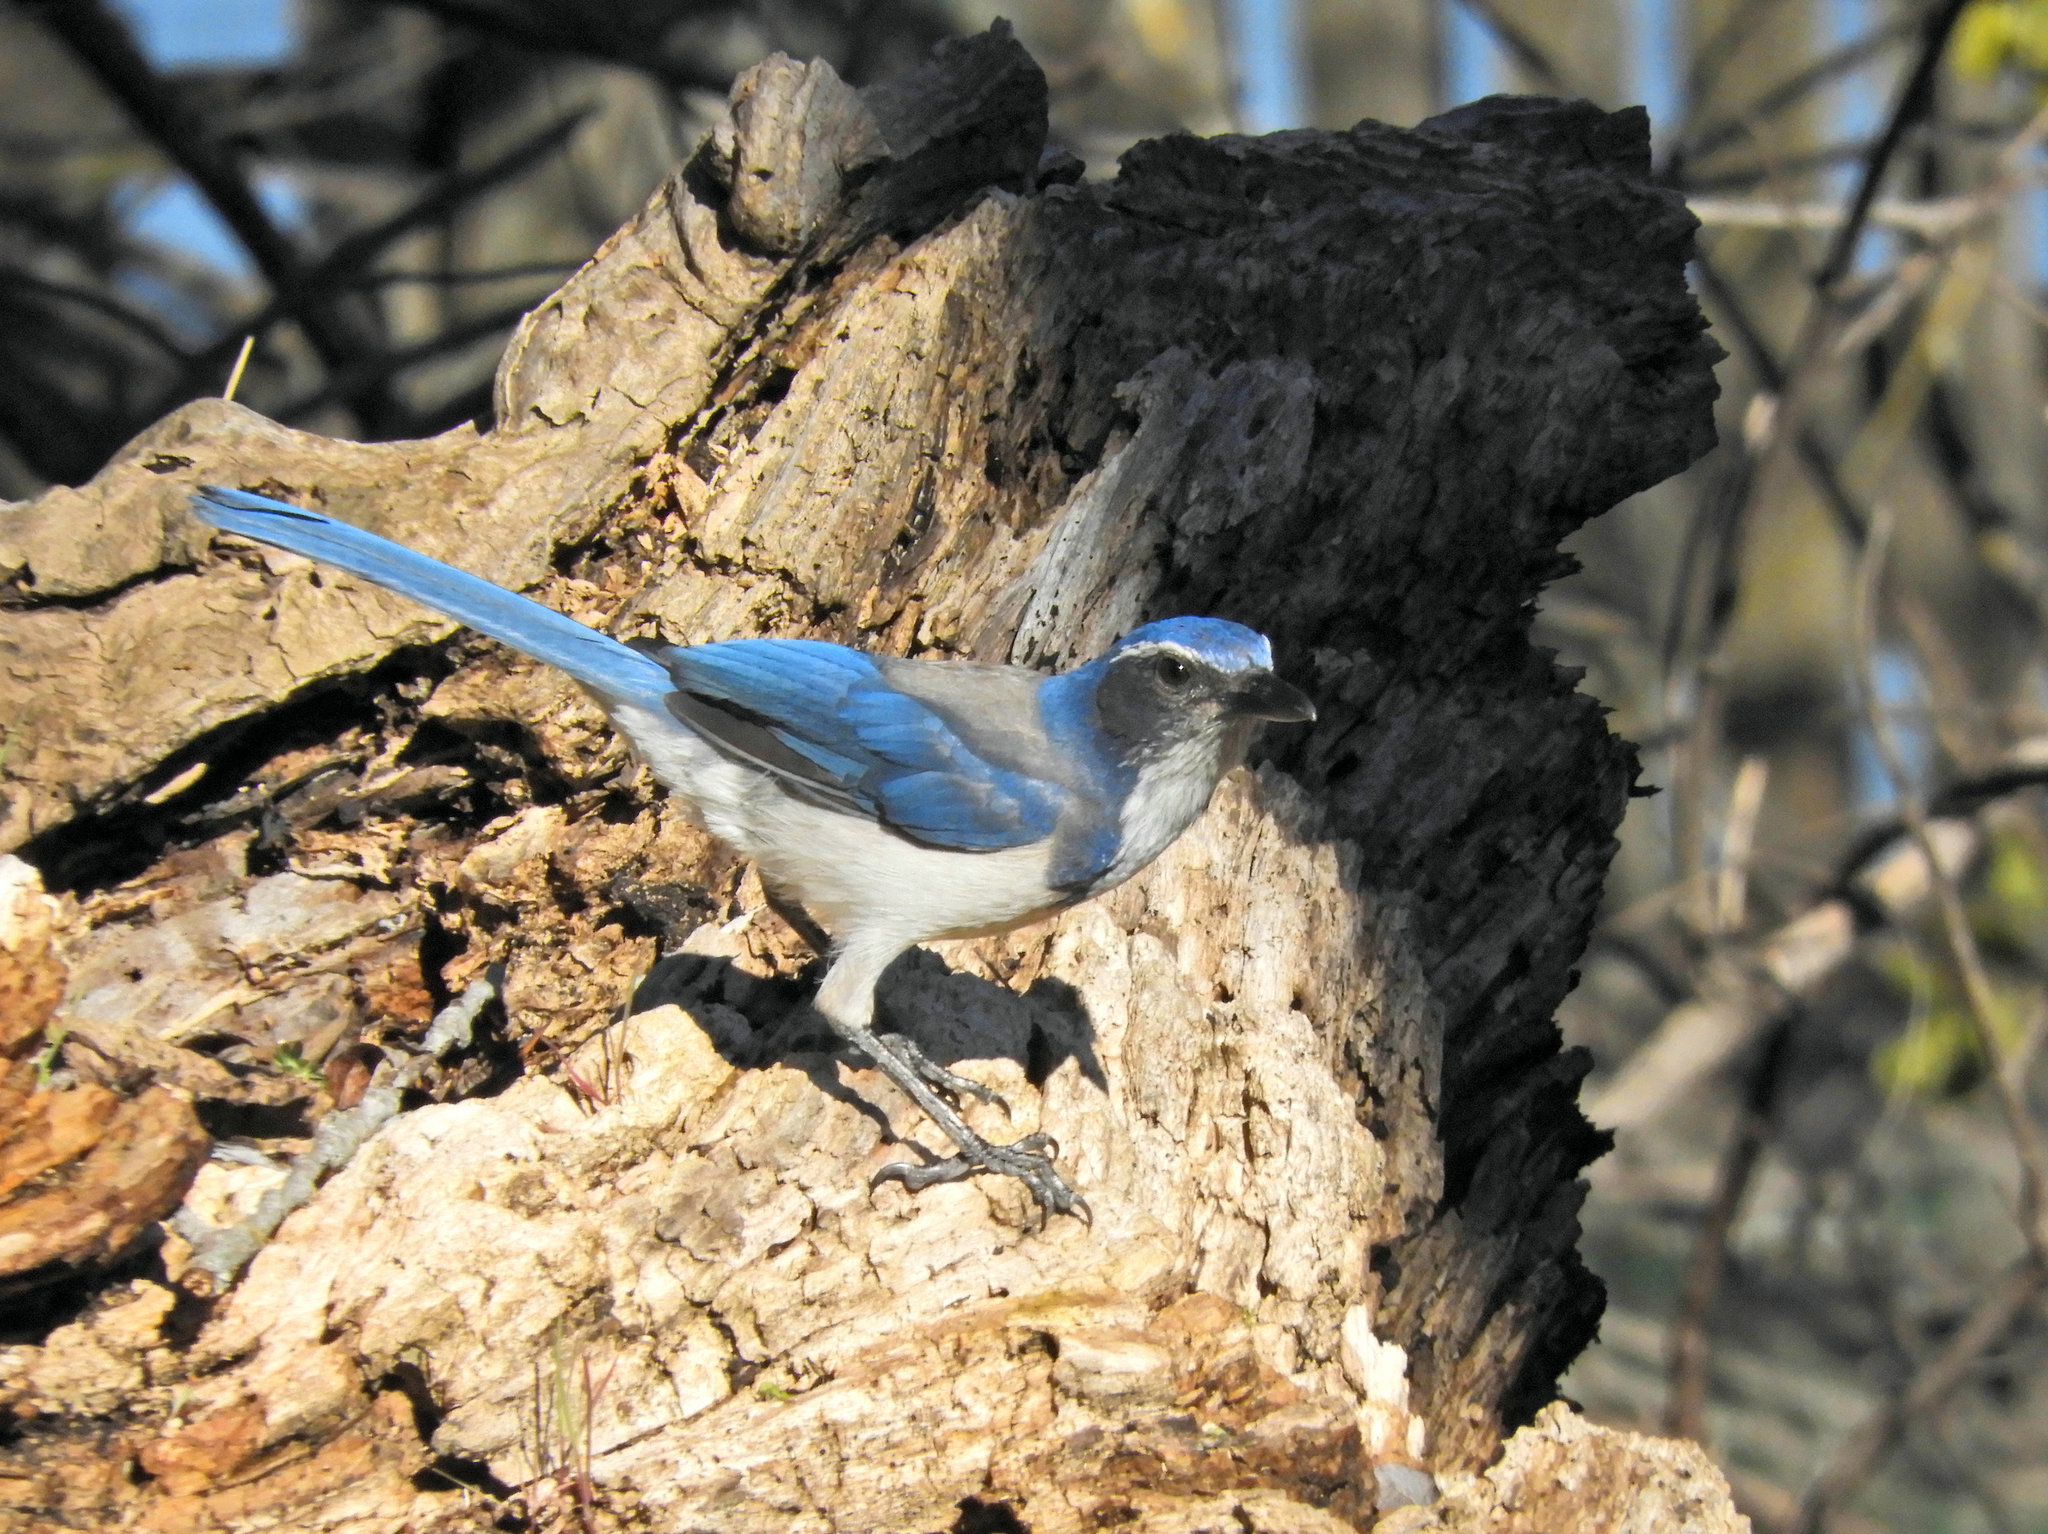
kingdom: Animalia
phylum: Chordata
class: Aves
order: Passeriformes
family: Corvidae
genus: Aphelocoma
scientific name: Aphelocoma californica
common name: California scrub-jay
